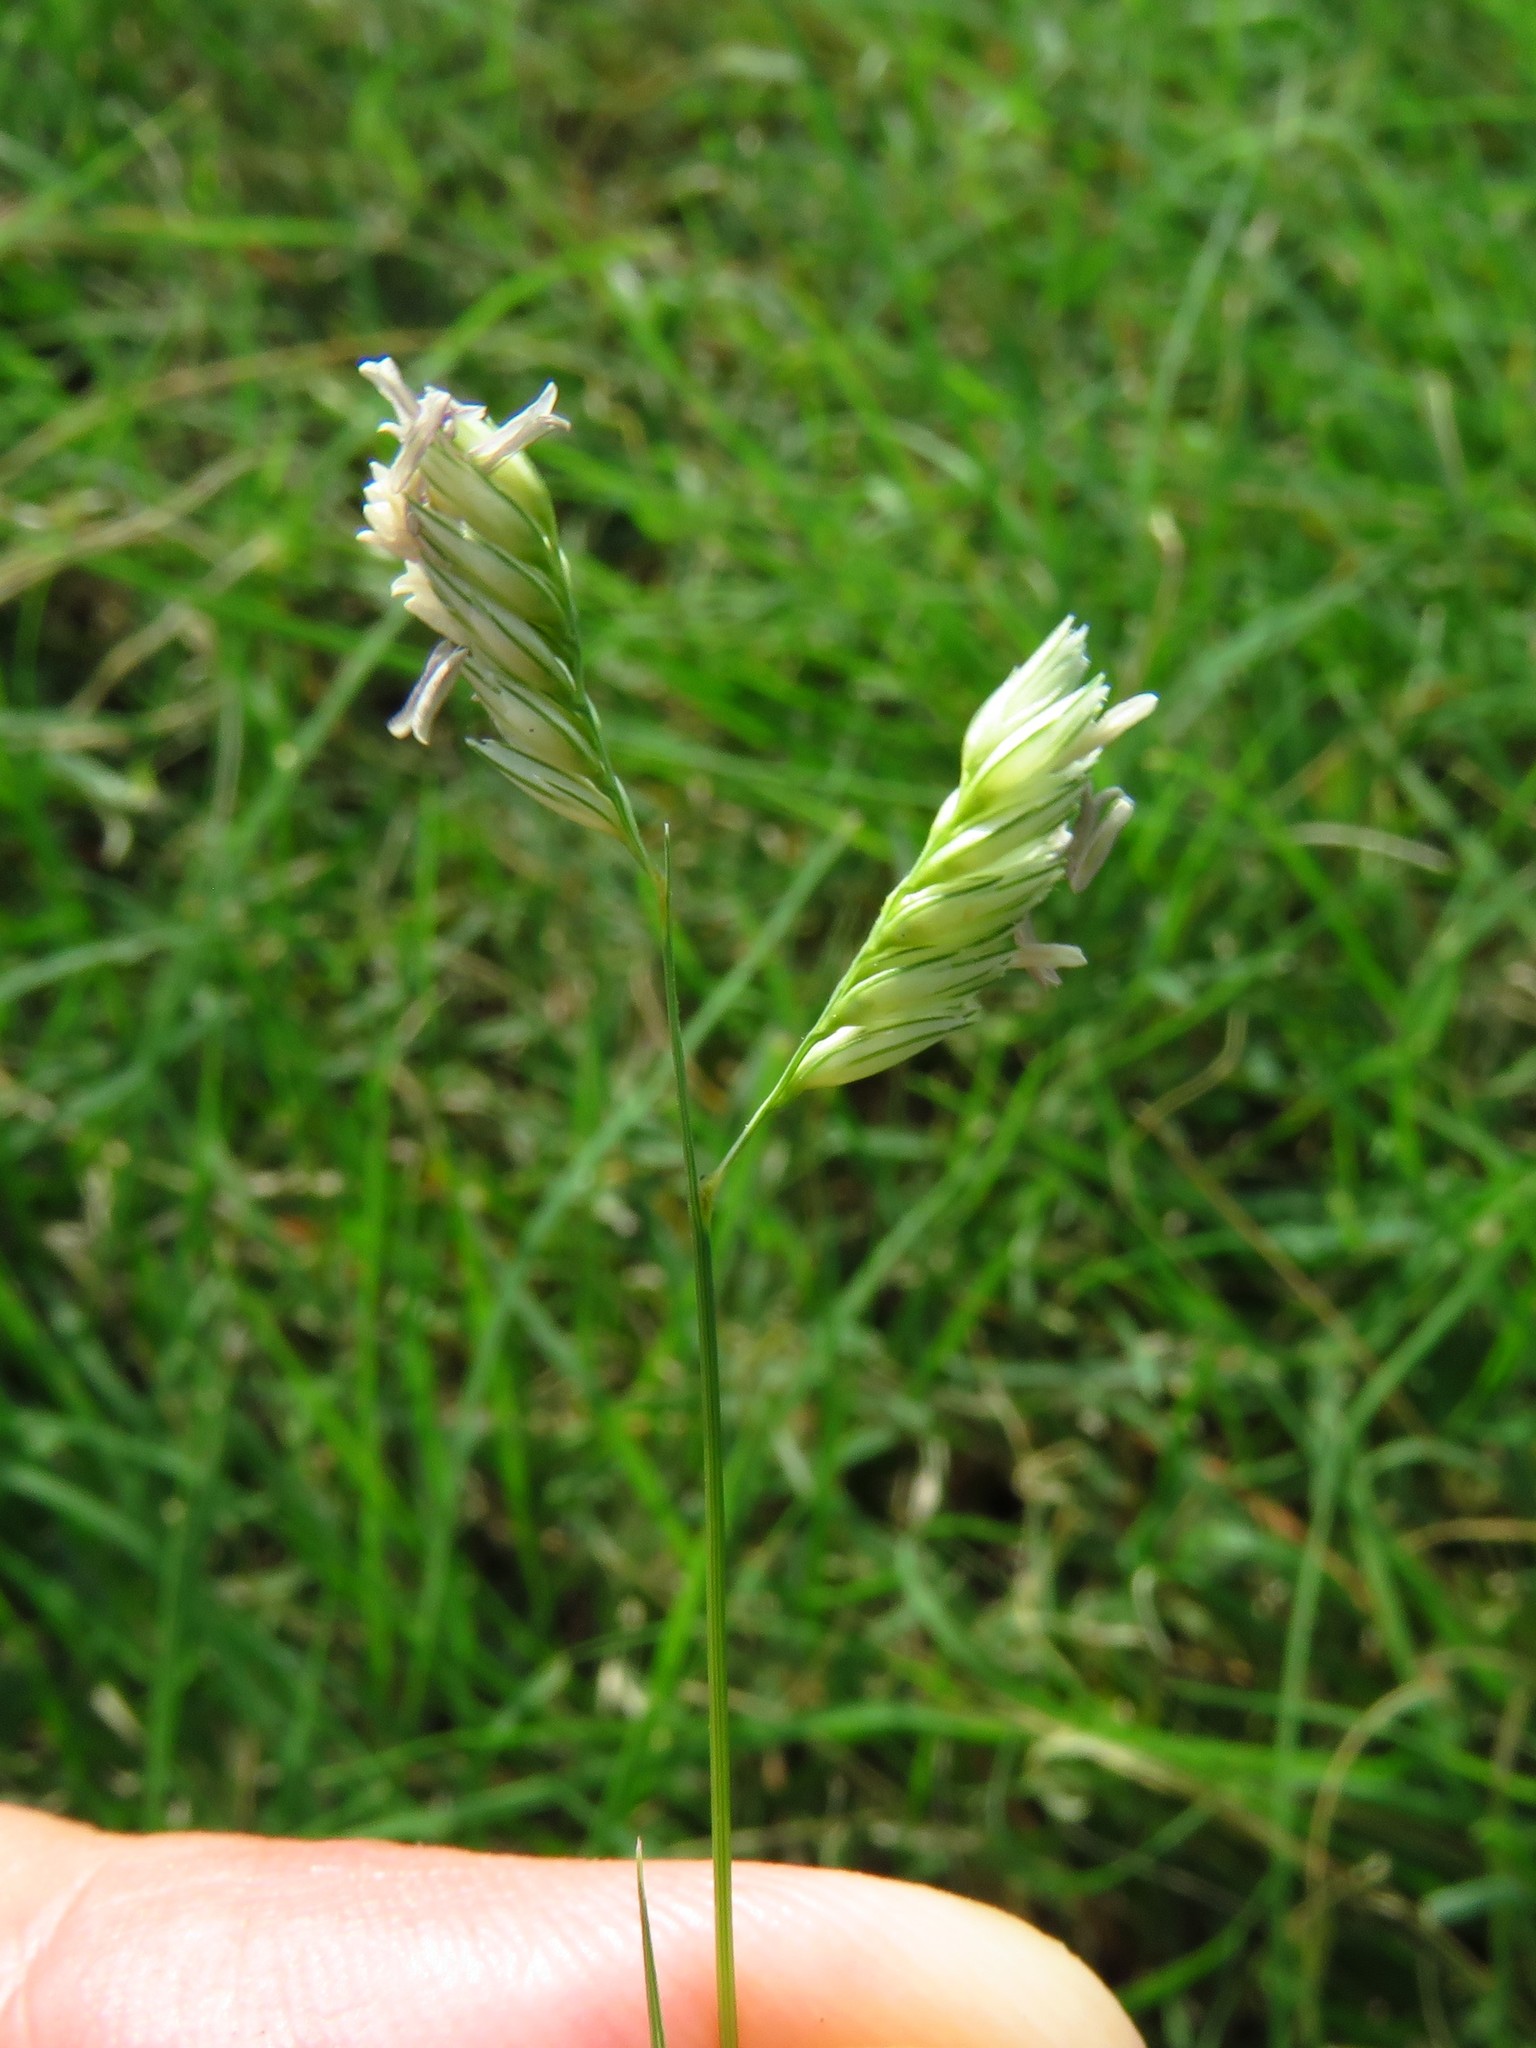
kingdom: Plantae
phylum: Tracheophyta
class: Liliopsida
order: Poales
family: Poaceae
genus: Bouteloua
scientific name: Bouteloua dactyloides
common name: Buffalo grass
